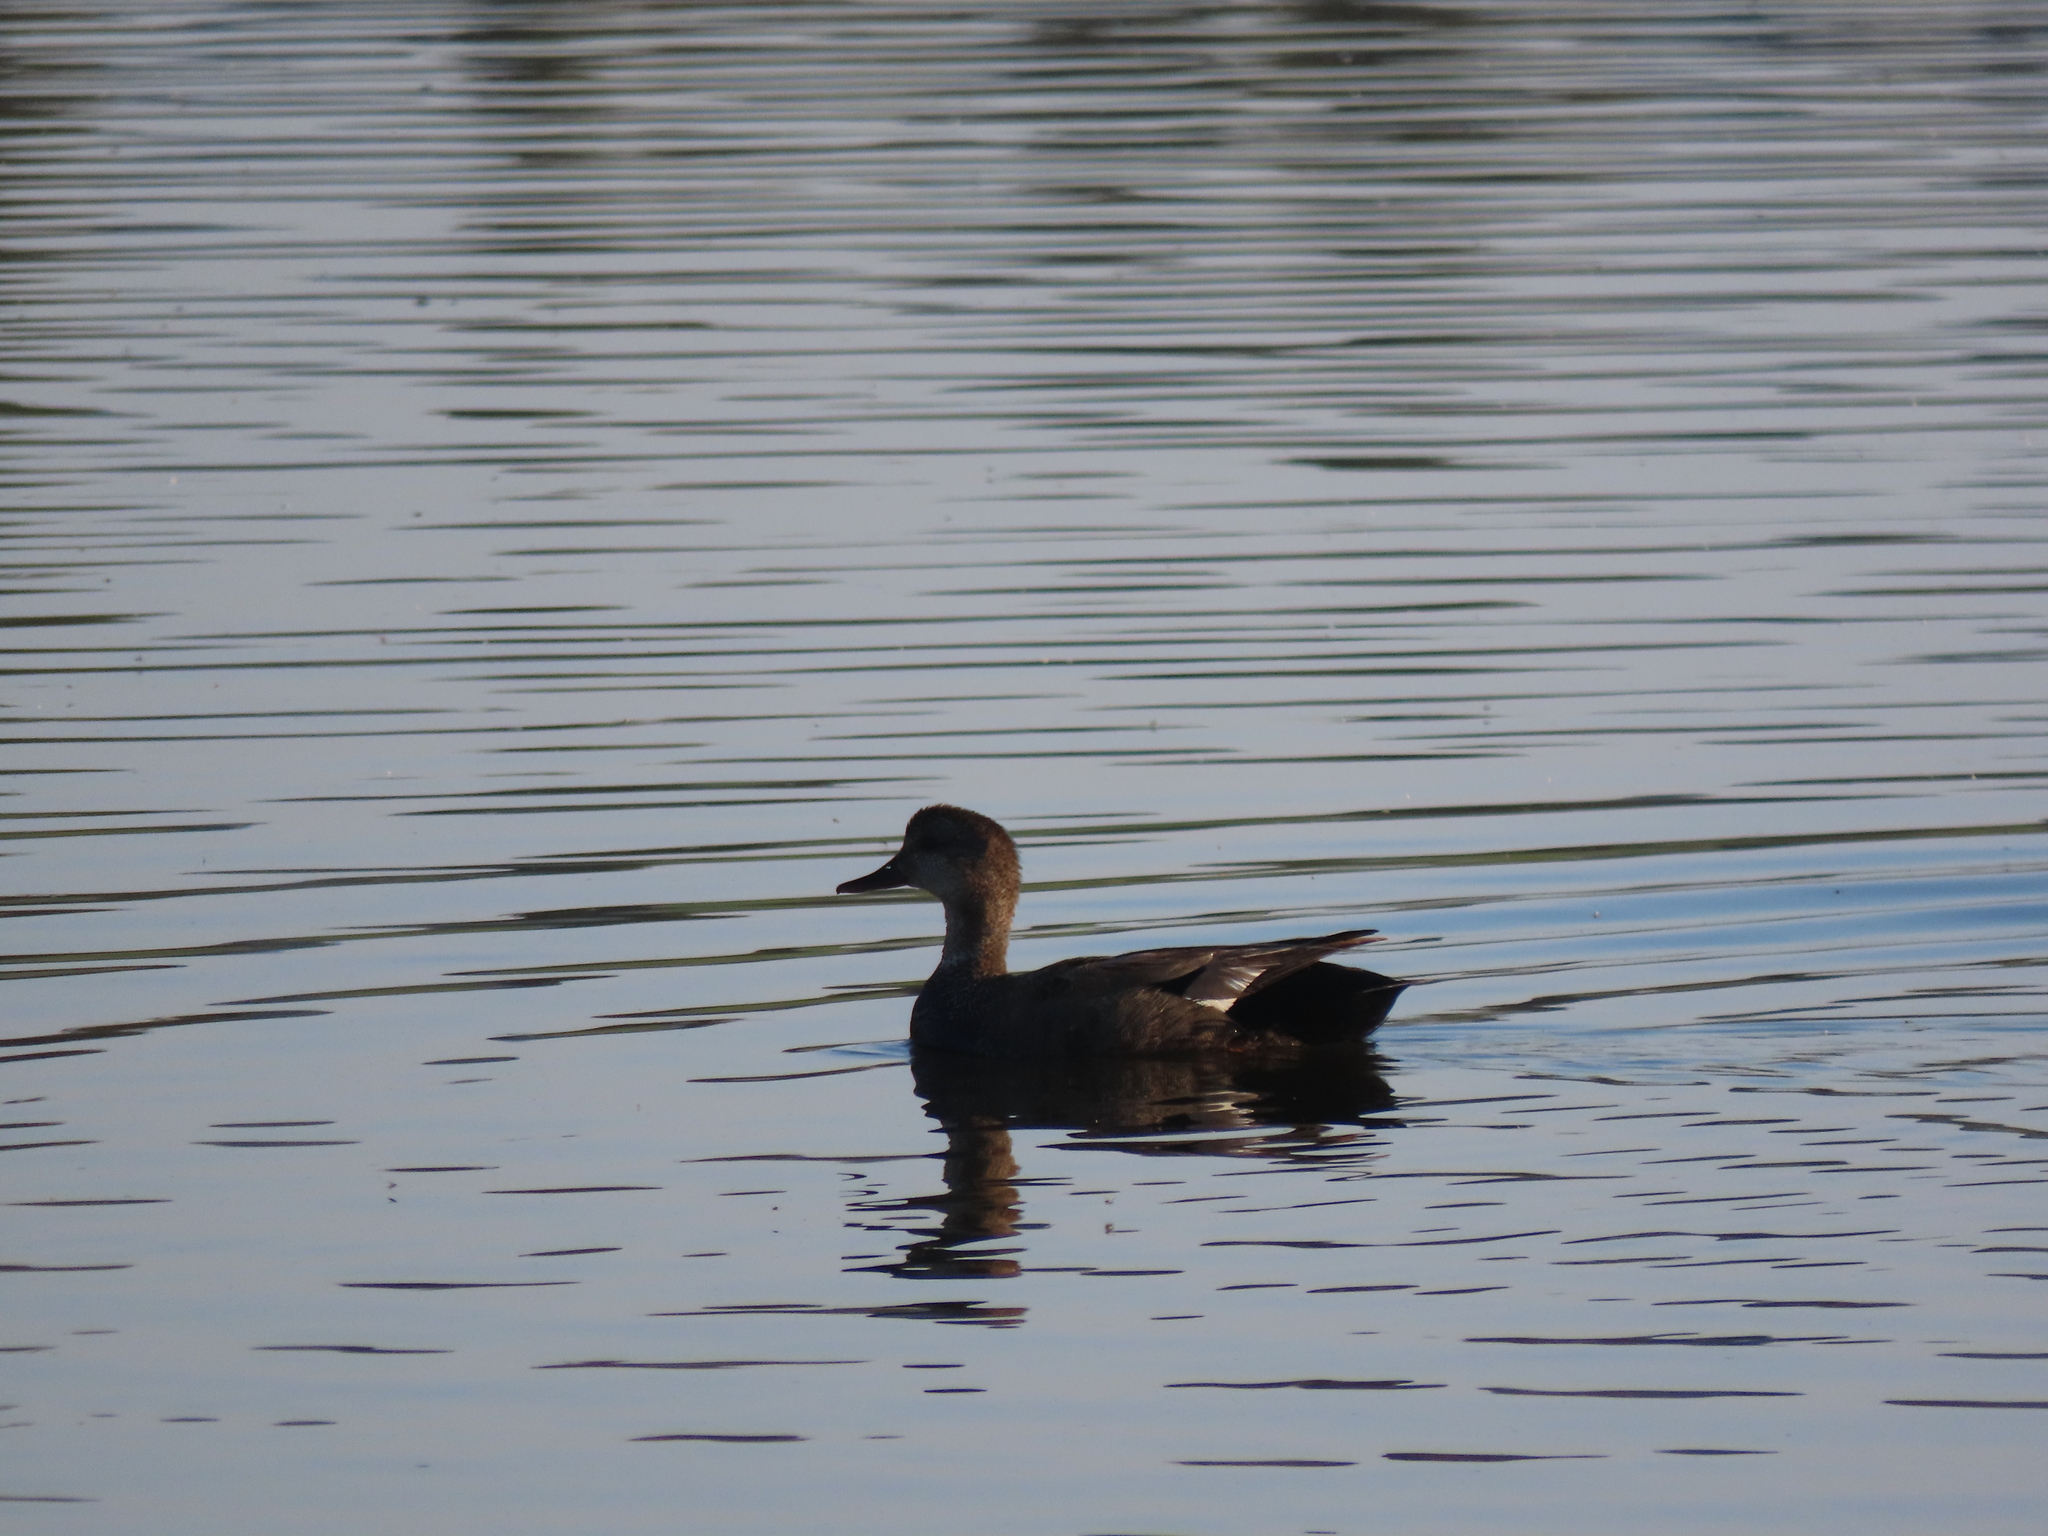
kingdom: Animalia
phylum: Chordata
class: Aves
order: Anseriformes
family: Anatidae
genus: Mareca
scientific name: Mareca strepera
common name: Gadwall
